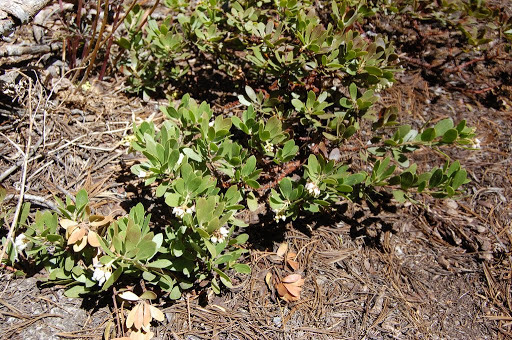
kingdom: Plantae
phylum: Tracheophyta
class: Magnoliopsida
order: Ericales
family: Ericaceae
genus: Arctostaphylos
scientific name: Arctostaphylos nevadensis
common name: Pinemat manzanita
